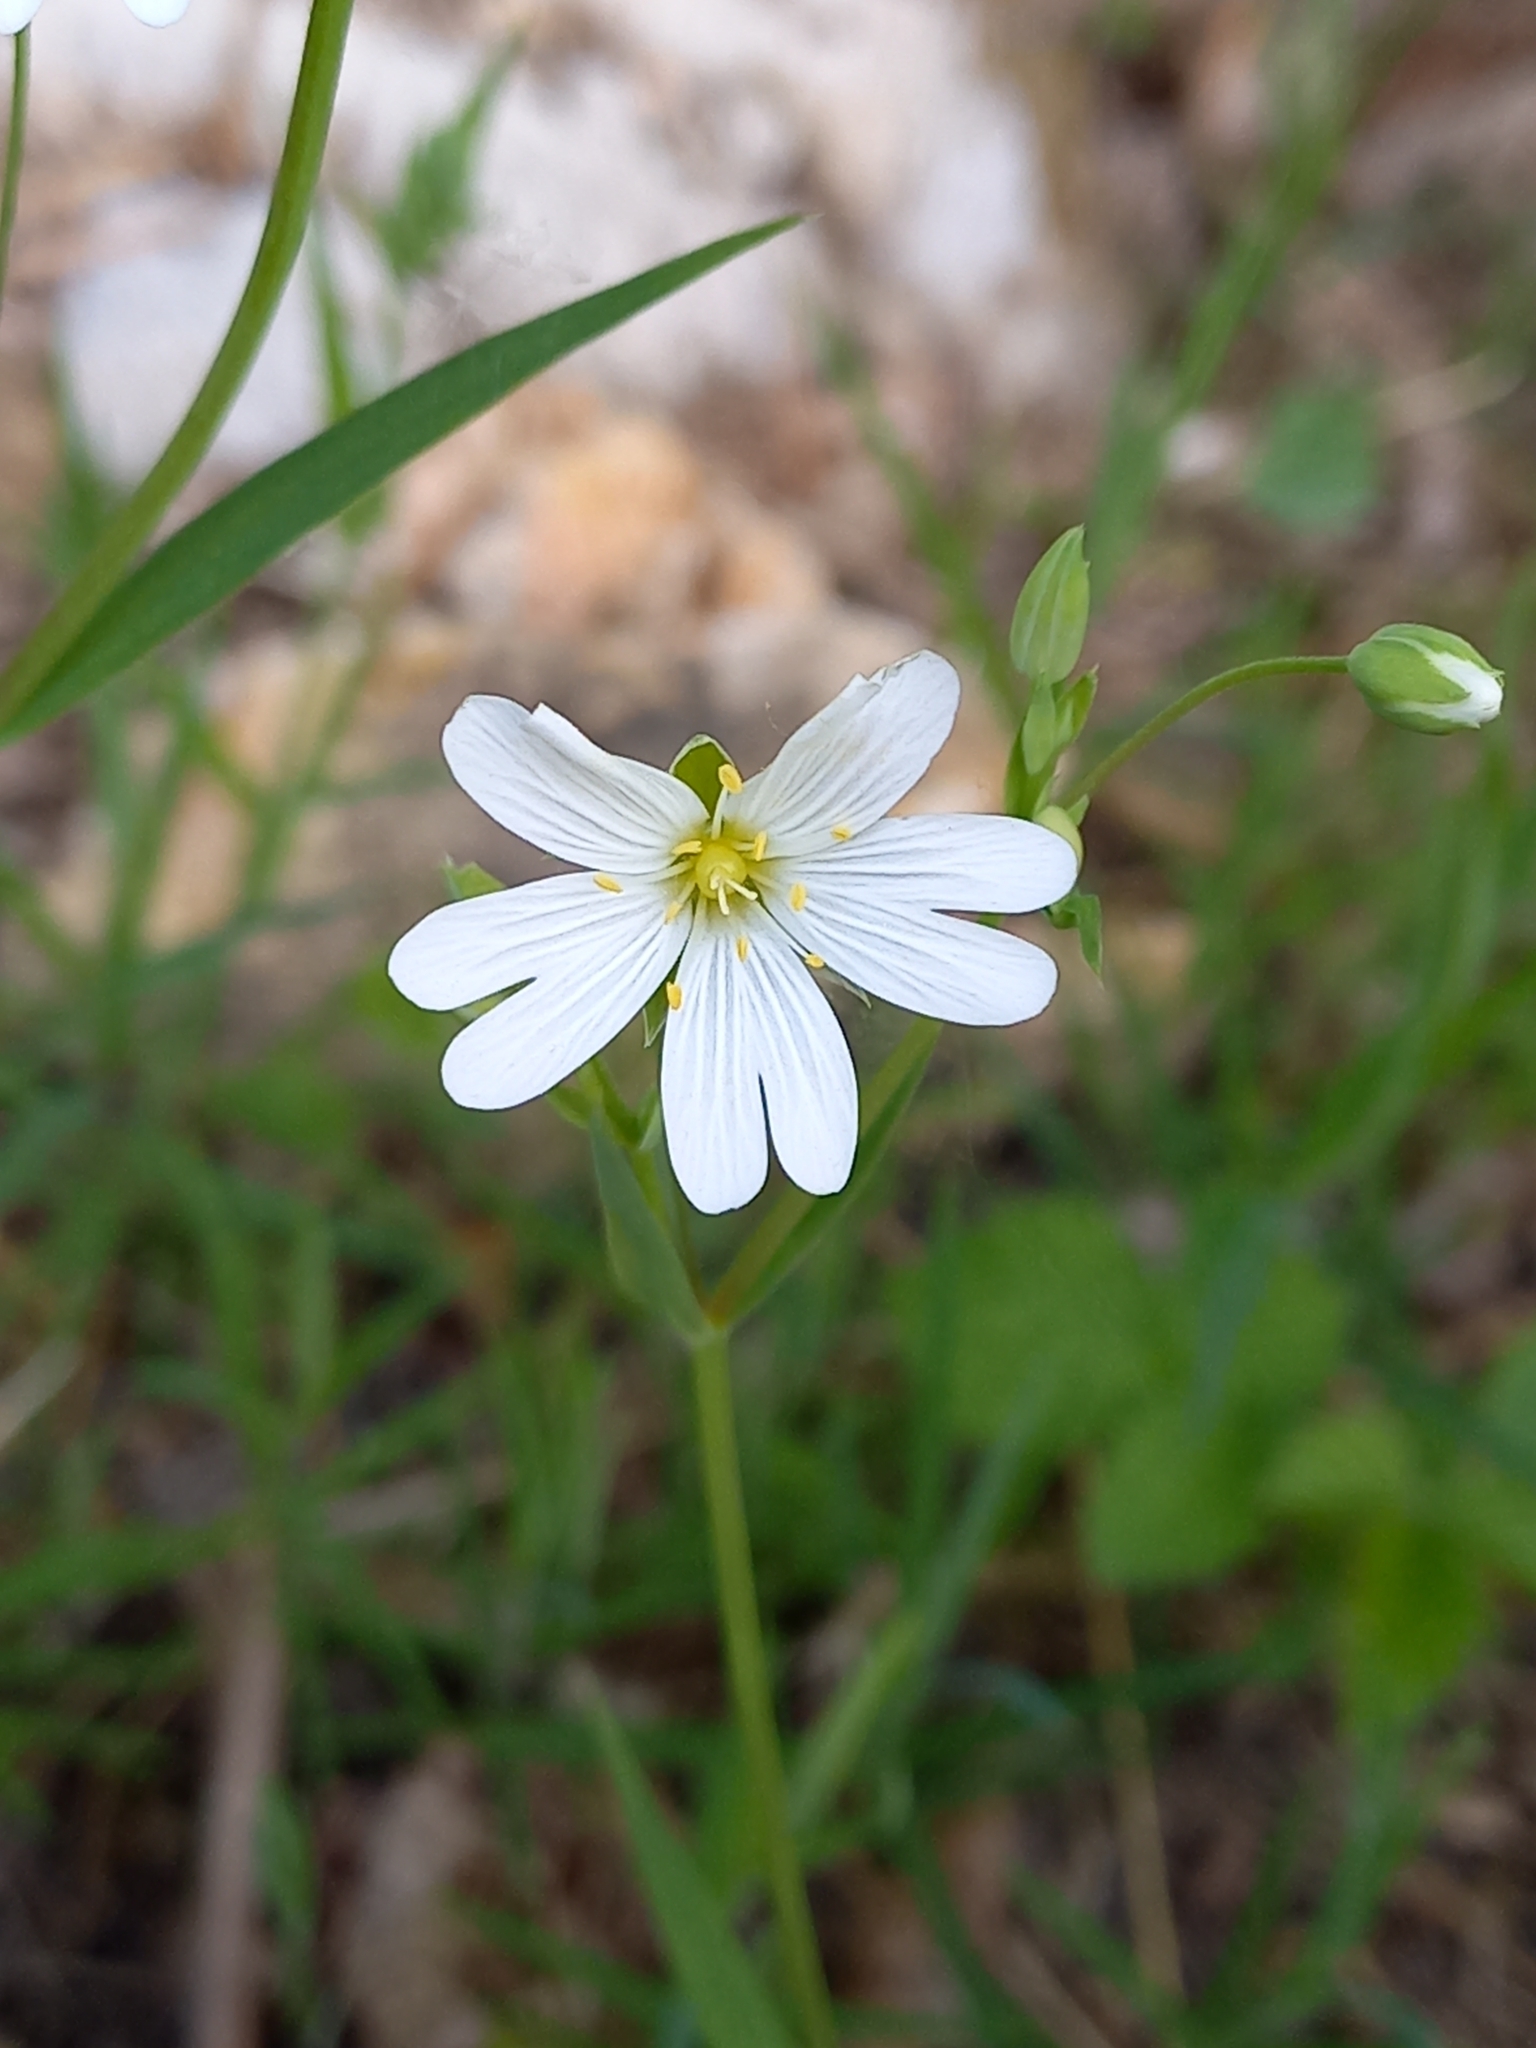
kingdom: Plantae
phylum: Tracheophyta
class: Magnoliopsida
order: Caryophyllales
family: Caryophyllaceae
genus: Rabelera
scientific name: Rabelera holostea
